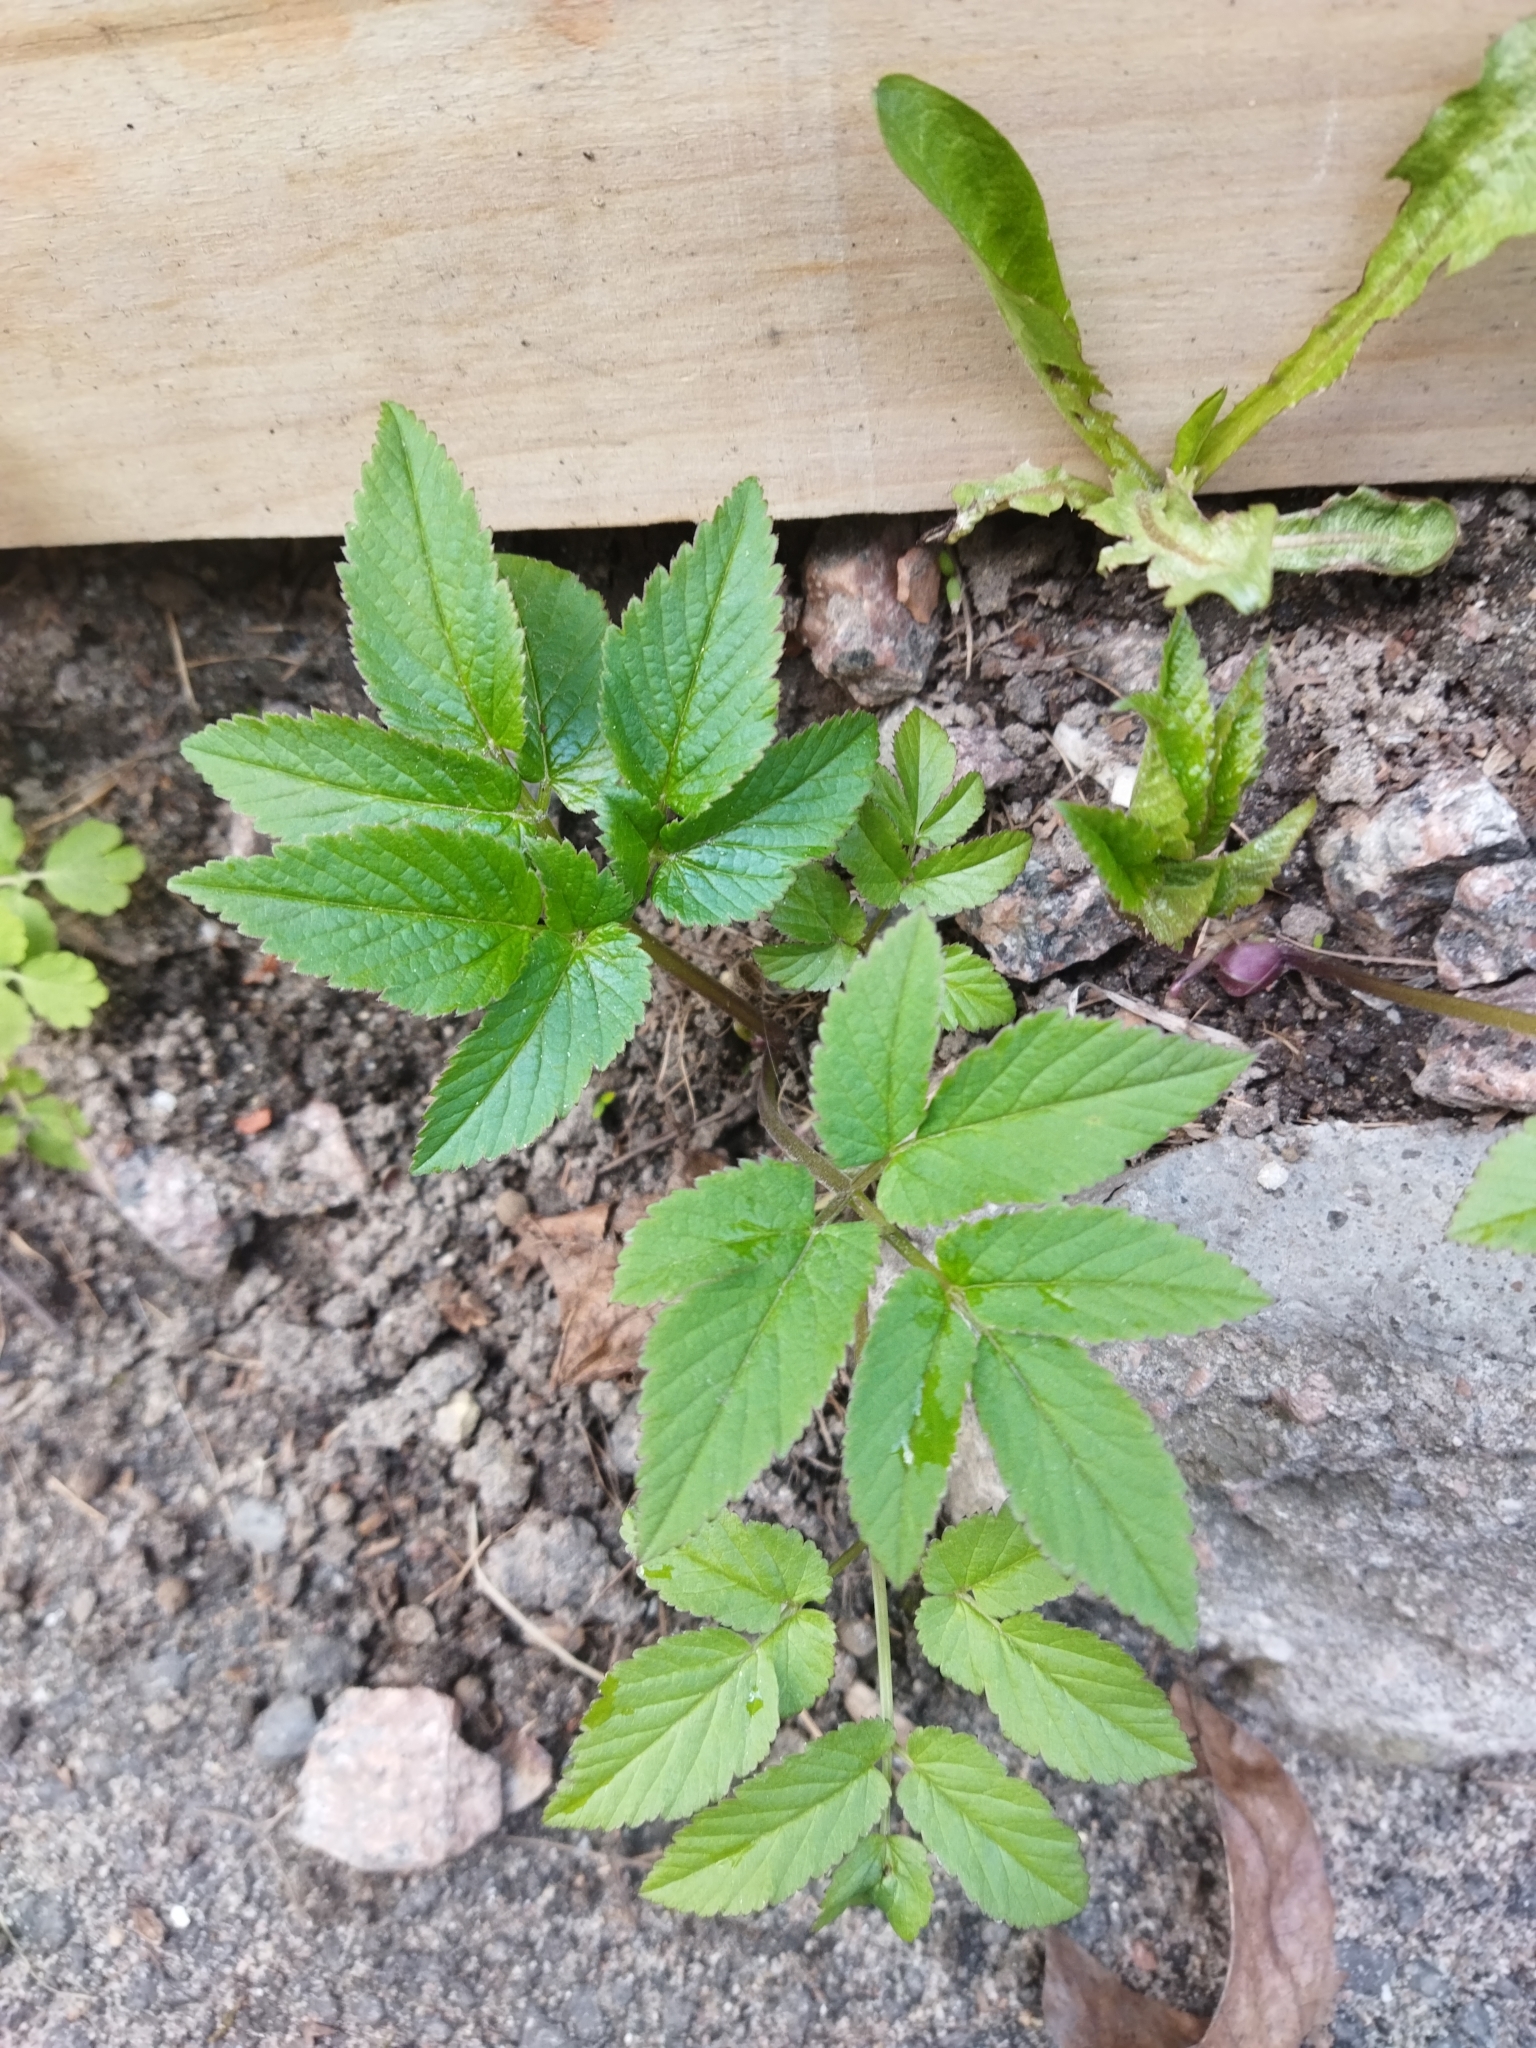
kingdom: Plantae
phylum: Tracheophyta
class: Magnoliopsida
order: Apiales
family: Apiaceae
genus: Aegopodium
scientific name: Aegopodium podagraria
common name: Ground-elder
